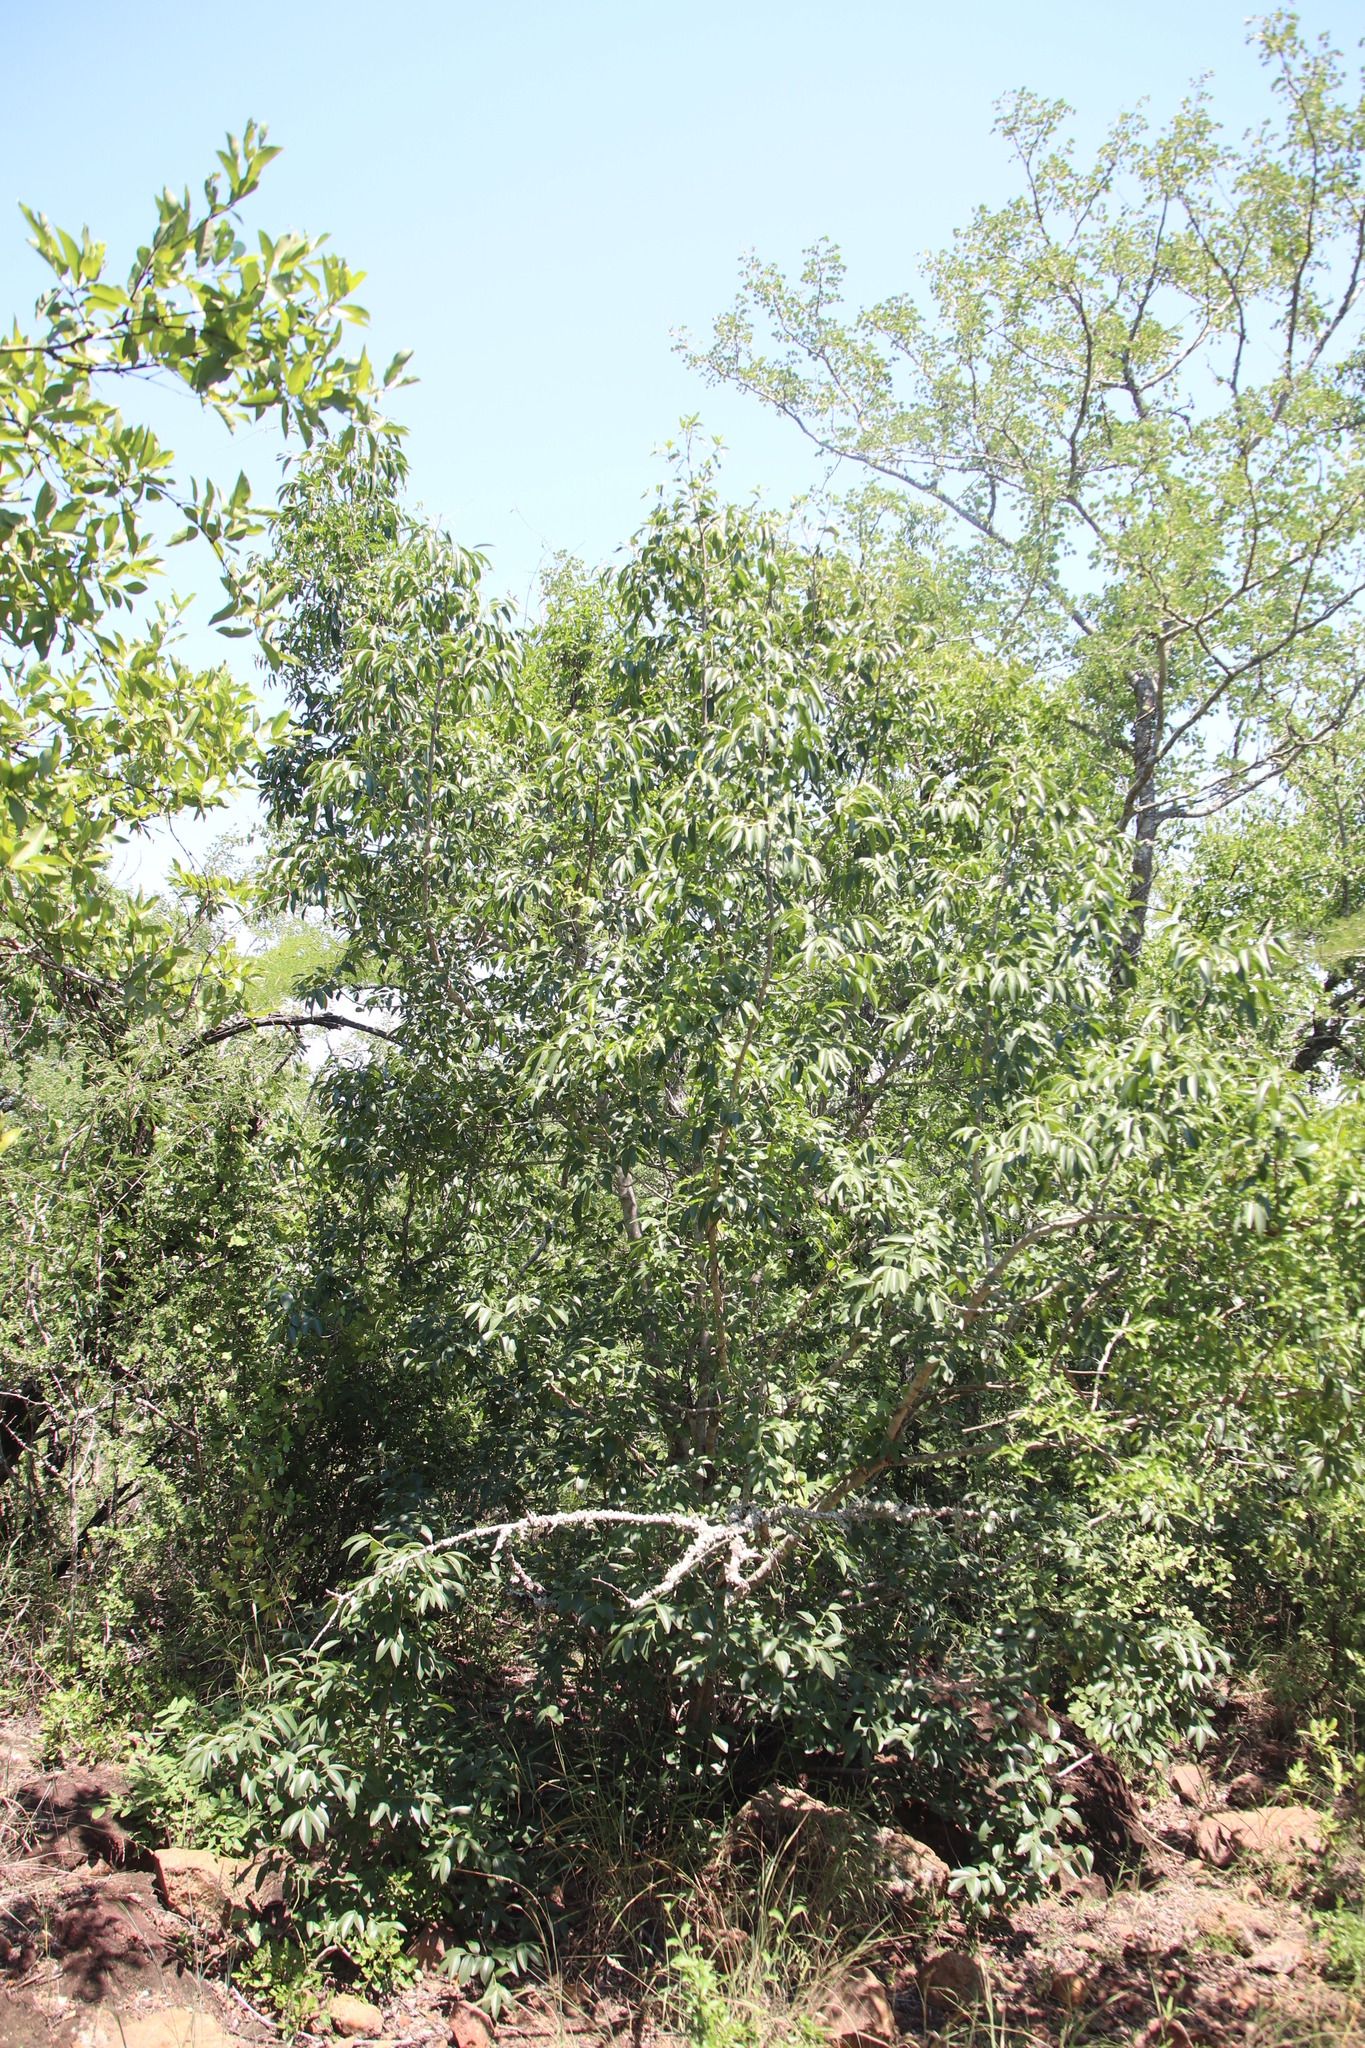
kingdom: Plantae
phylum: Tracheophyta
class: Magnoliopsida
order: Rosales
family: Rhamnaceae
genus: Ziziphus
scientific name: Ziziphus rivularis
